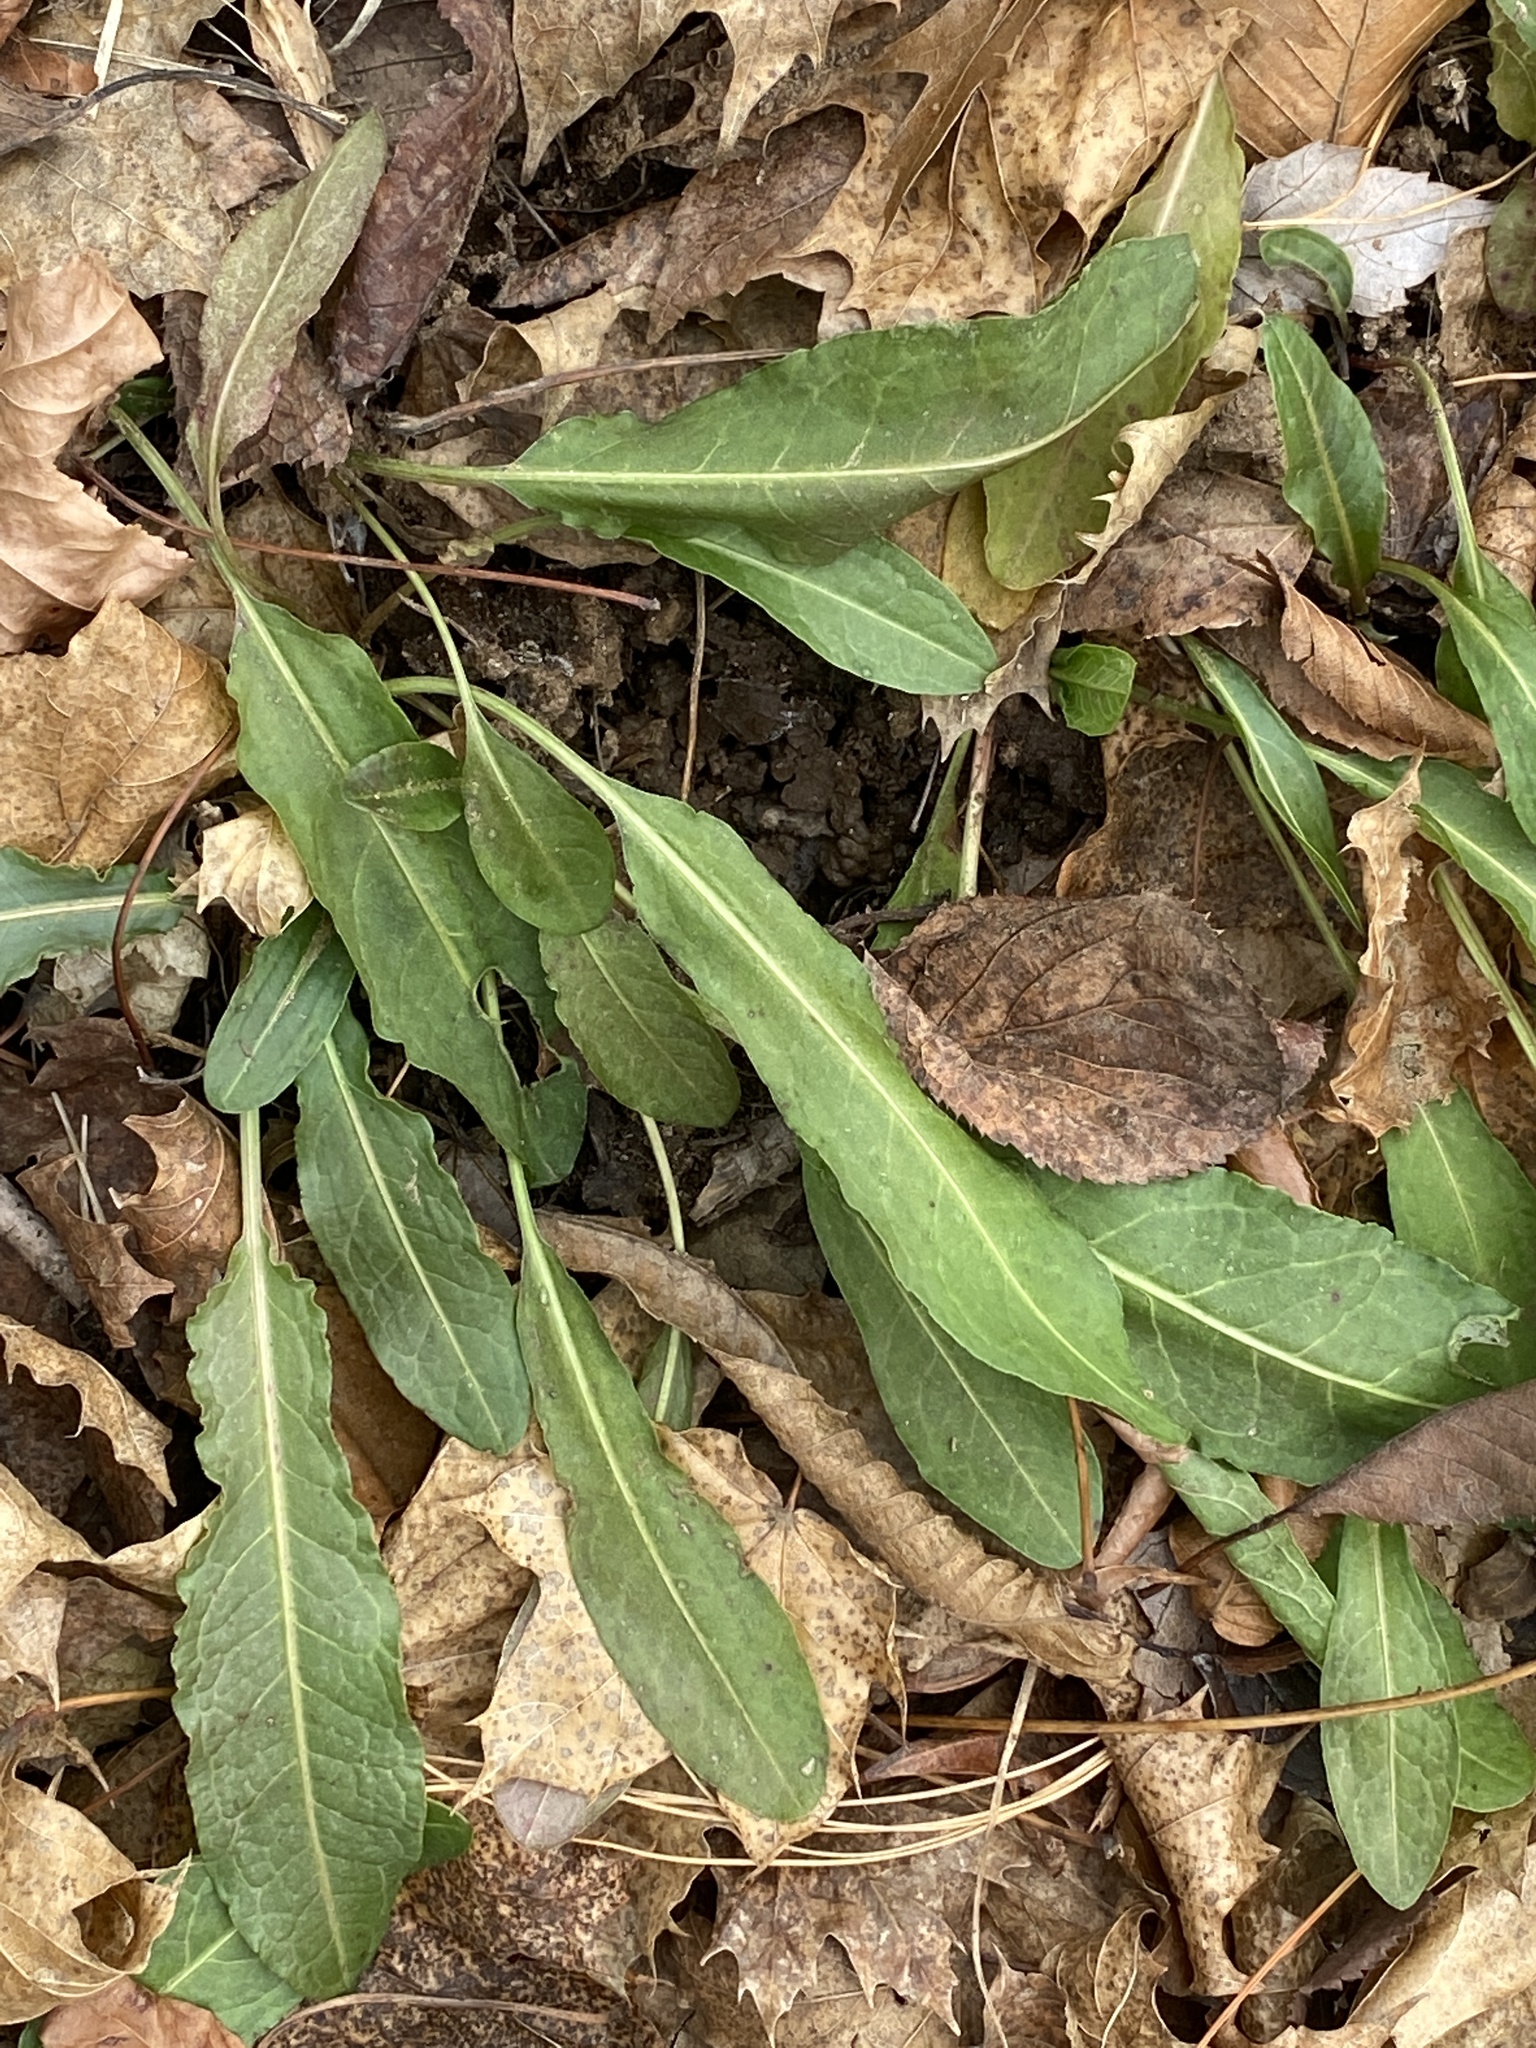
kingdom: Plantae
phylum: Tracheophyta
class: Magnoliopsida
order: Caryophyllales
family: Polygonaceae
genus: Rumex
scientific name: Rumex crispus
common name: Curled dock
